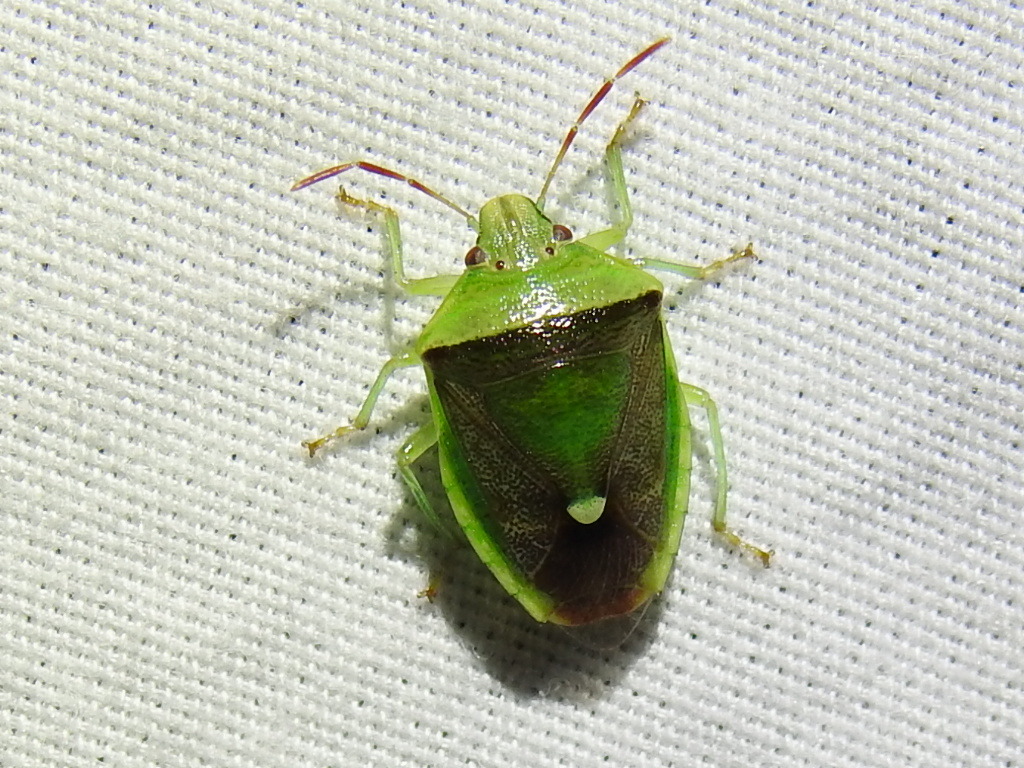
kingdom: Animalia
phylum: Arthropoda
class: Insecta
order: Hemiptera
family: Pentatomidae
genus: Banasa
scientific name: Banasa dimidiata
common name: Green burgundy stink bug
